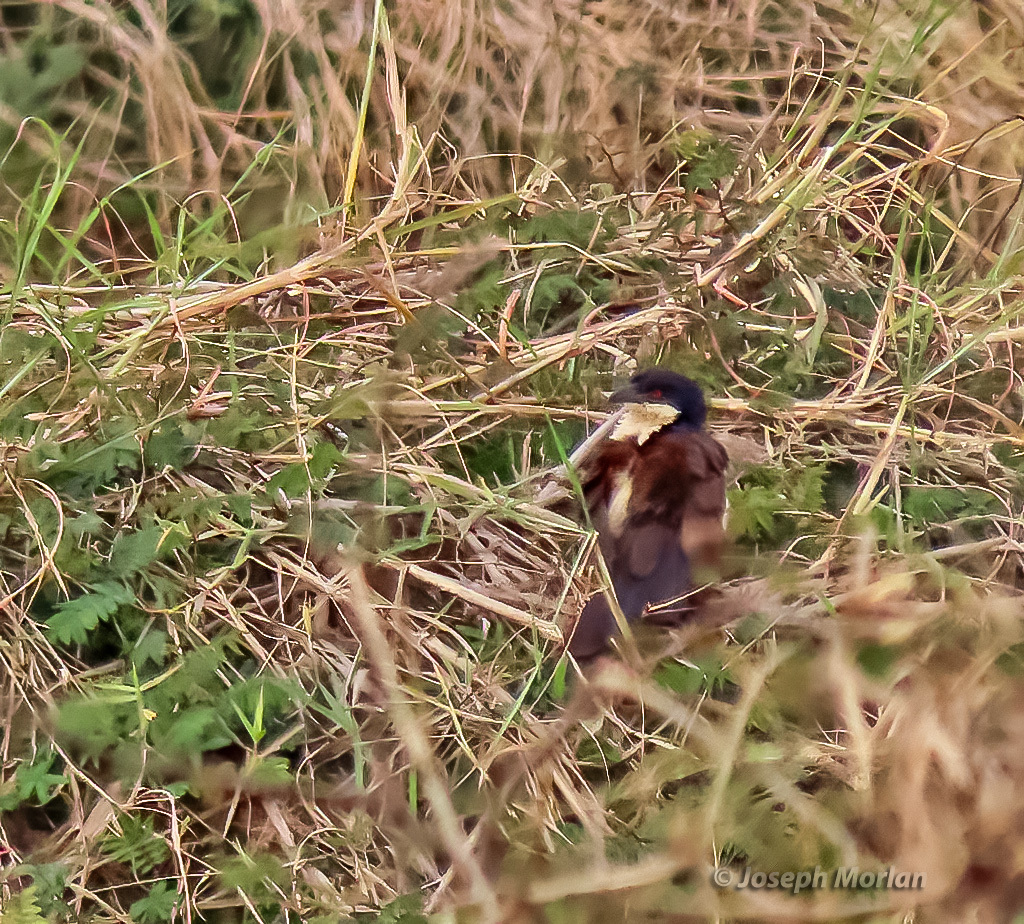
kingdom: Animalia
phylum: Chordata
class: Aves
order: Cuculiformes
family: Cuculidae
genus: Centropus
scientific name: Centropus senegalensis
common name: Senegal coucal
